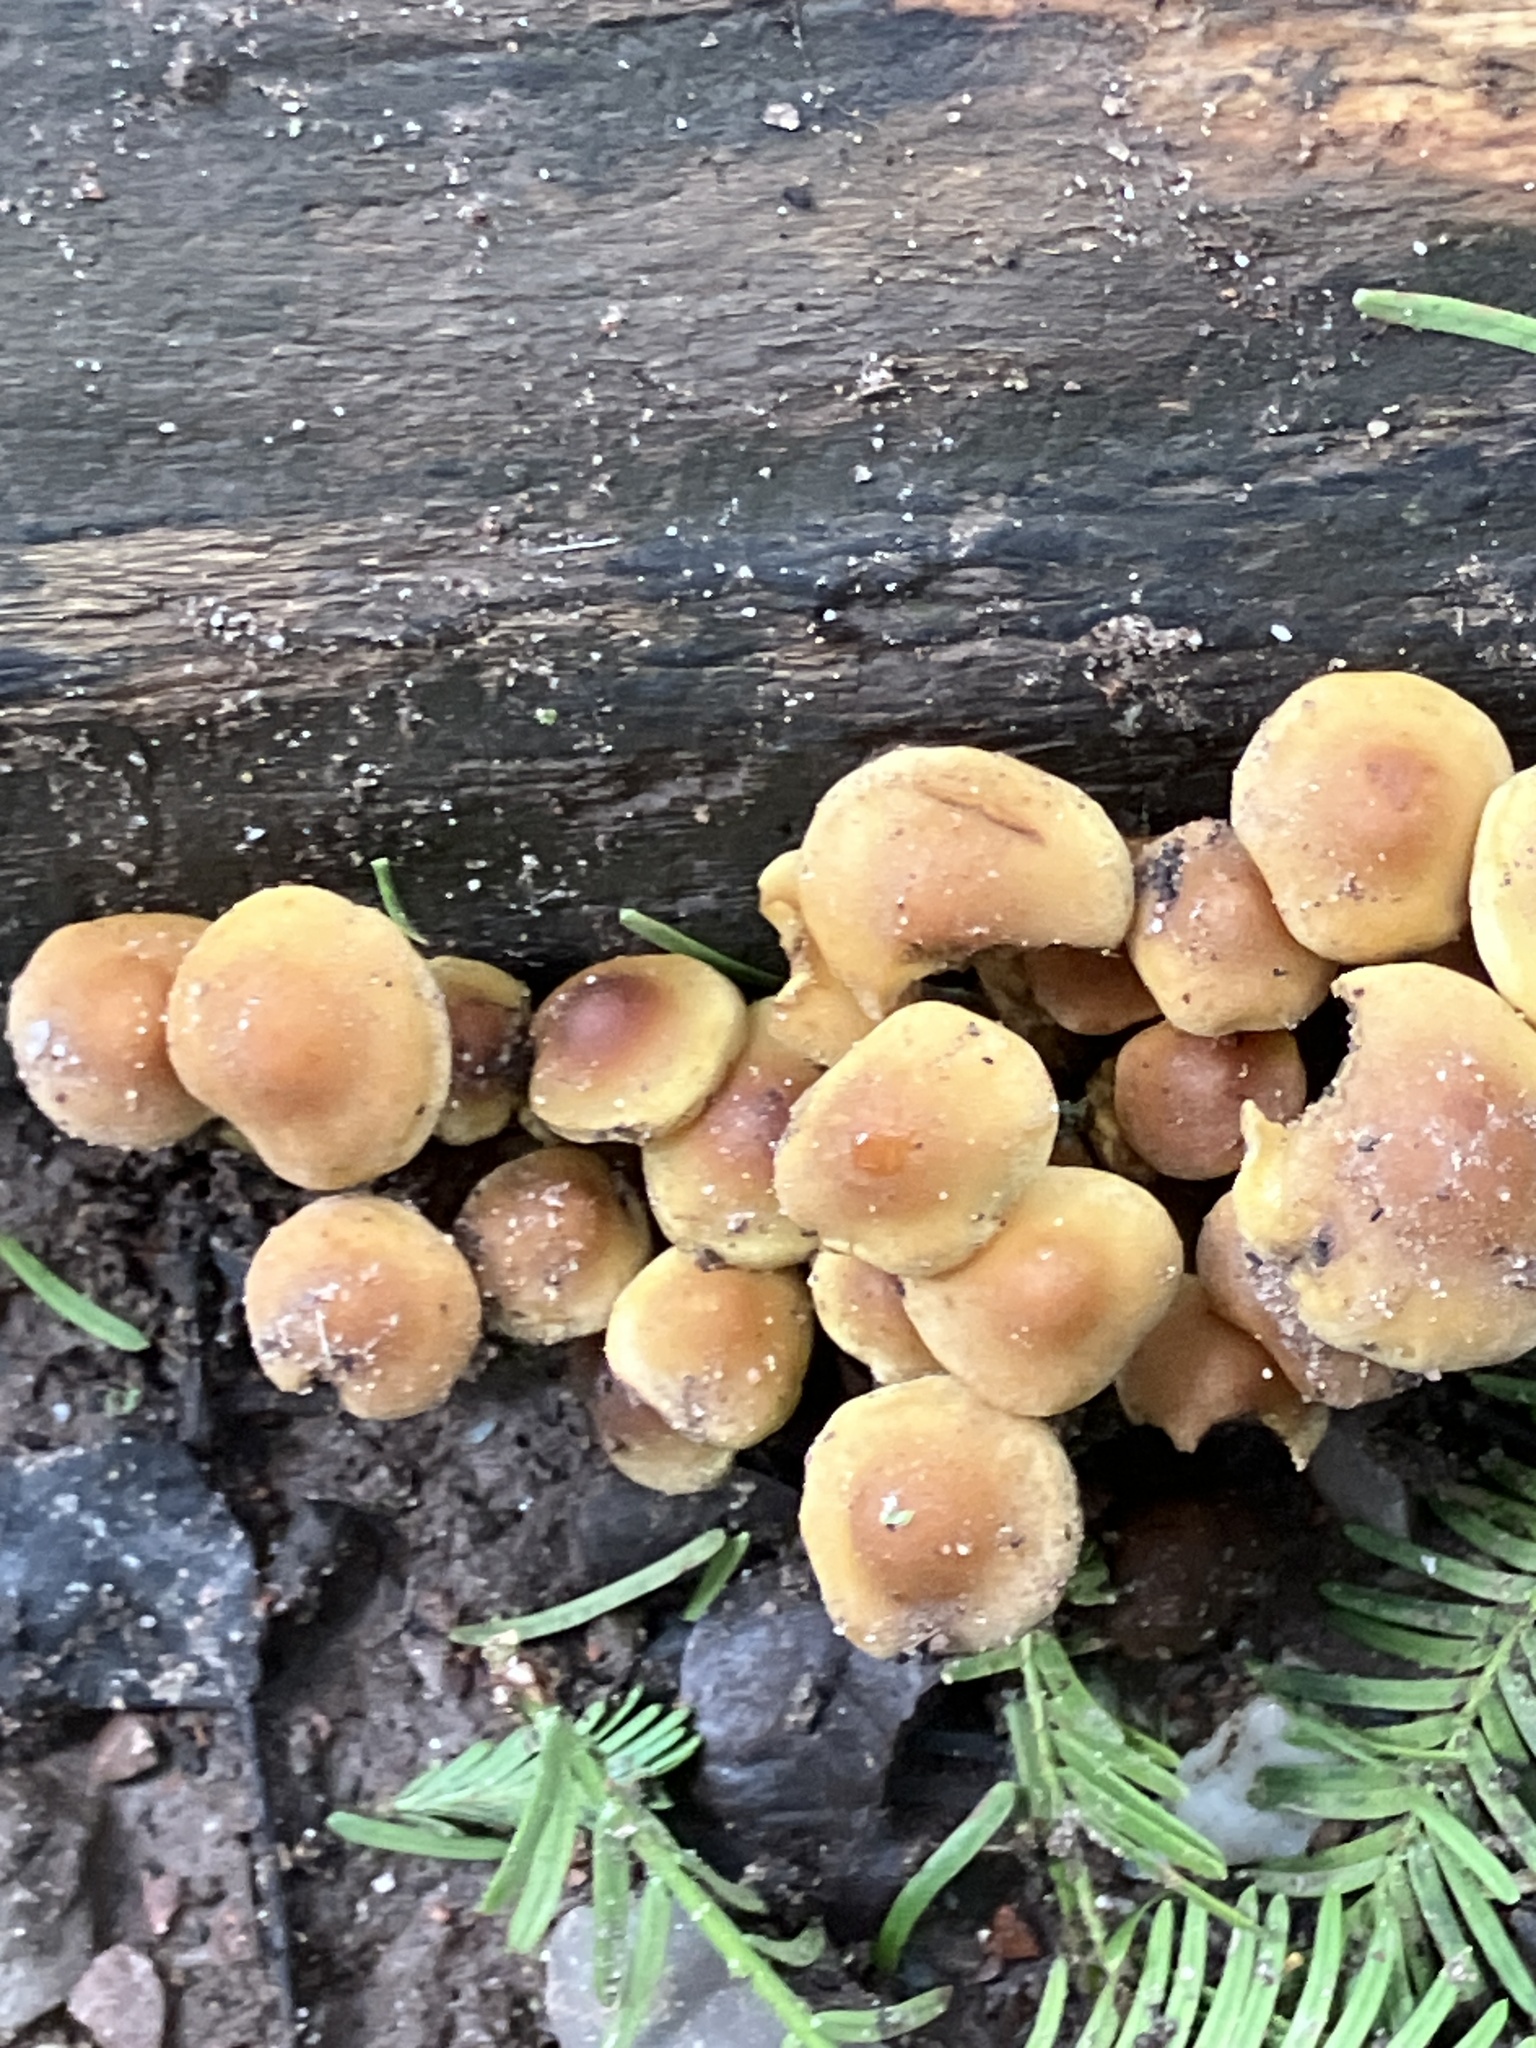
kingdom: Fungi
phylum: Basidiomycota
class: Agaricomycetes
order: Agaricales
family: Strophariaceae
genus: Hypholoma
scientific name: Hypholoma fasciculare
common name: Sulphur tuft
